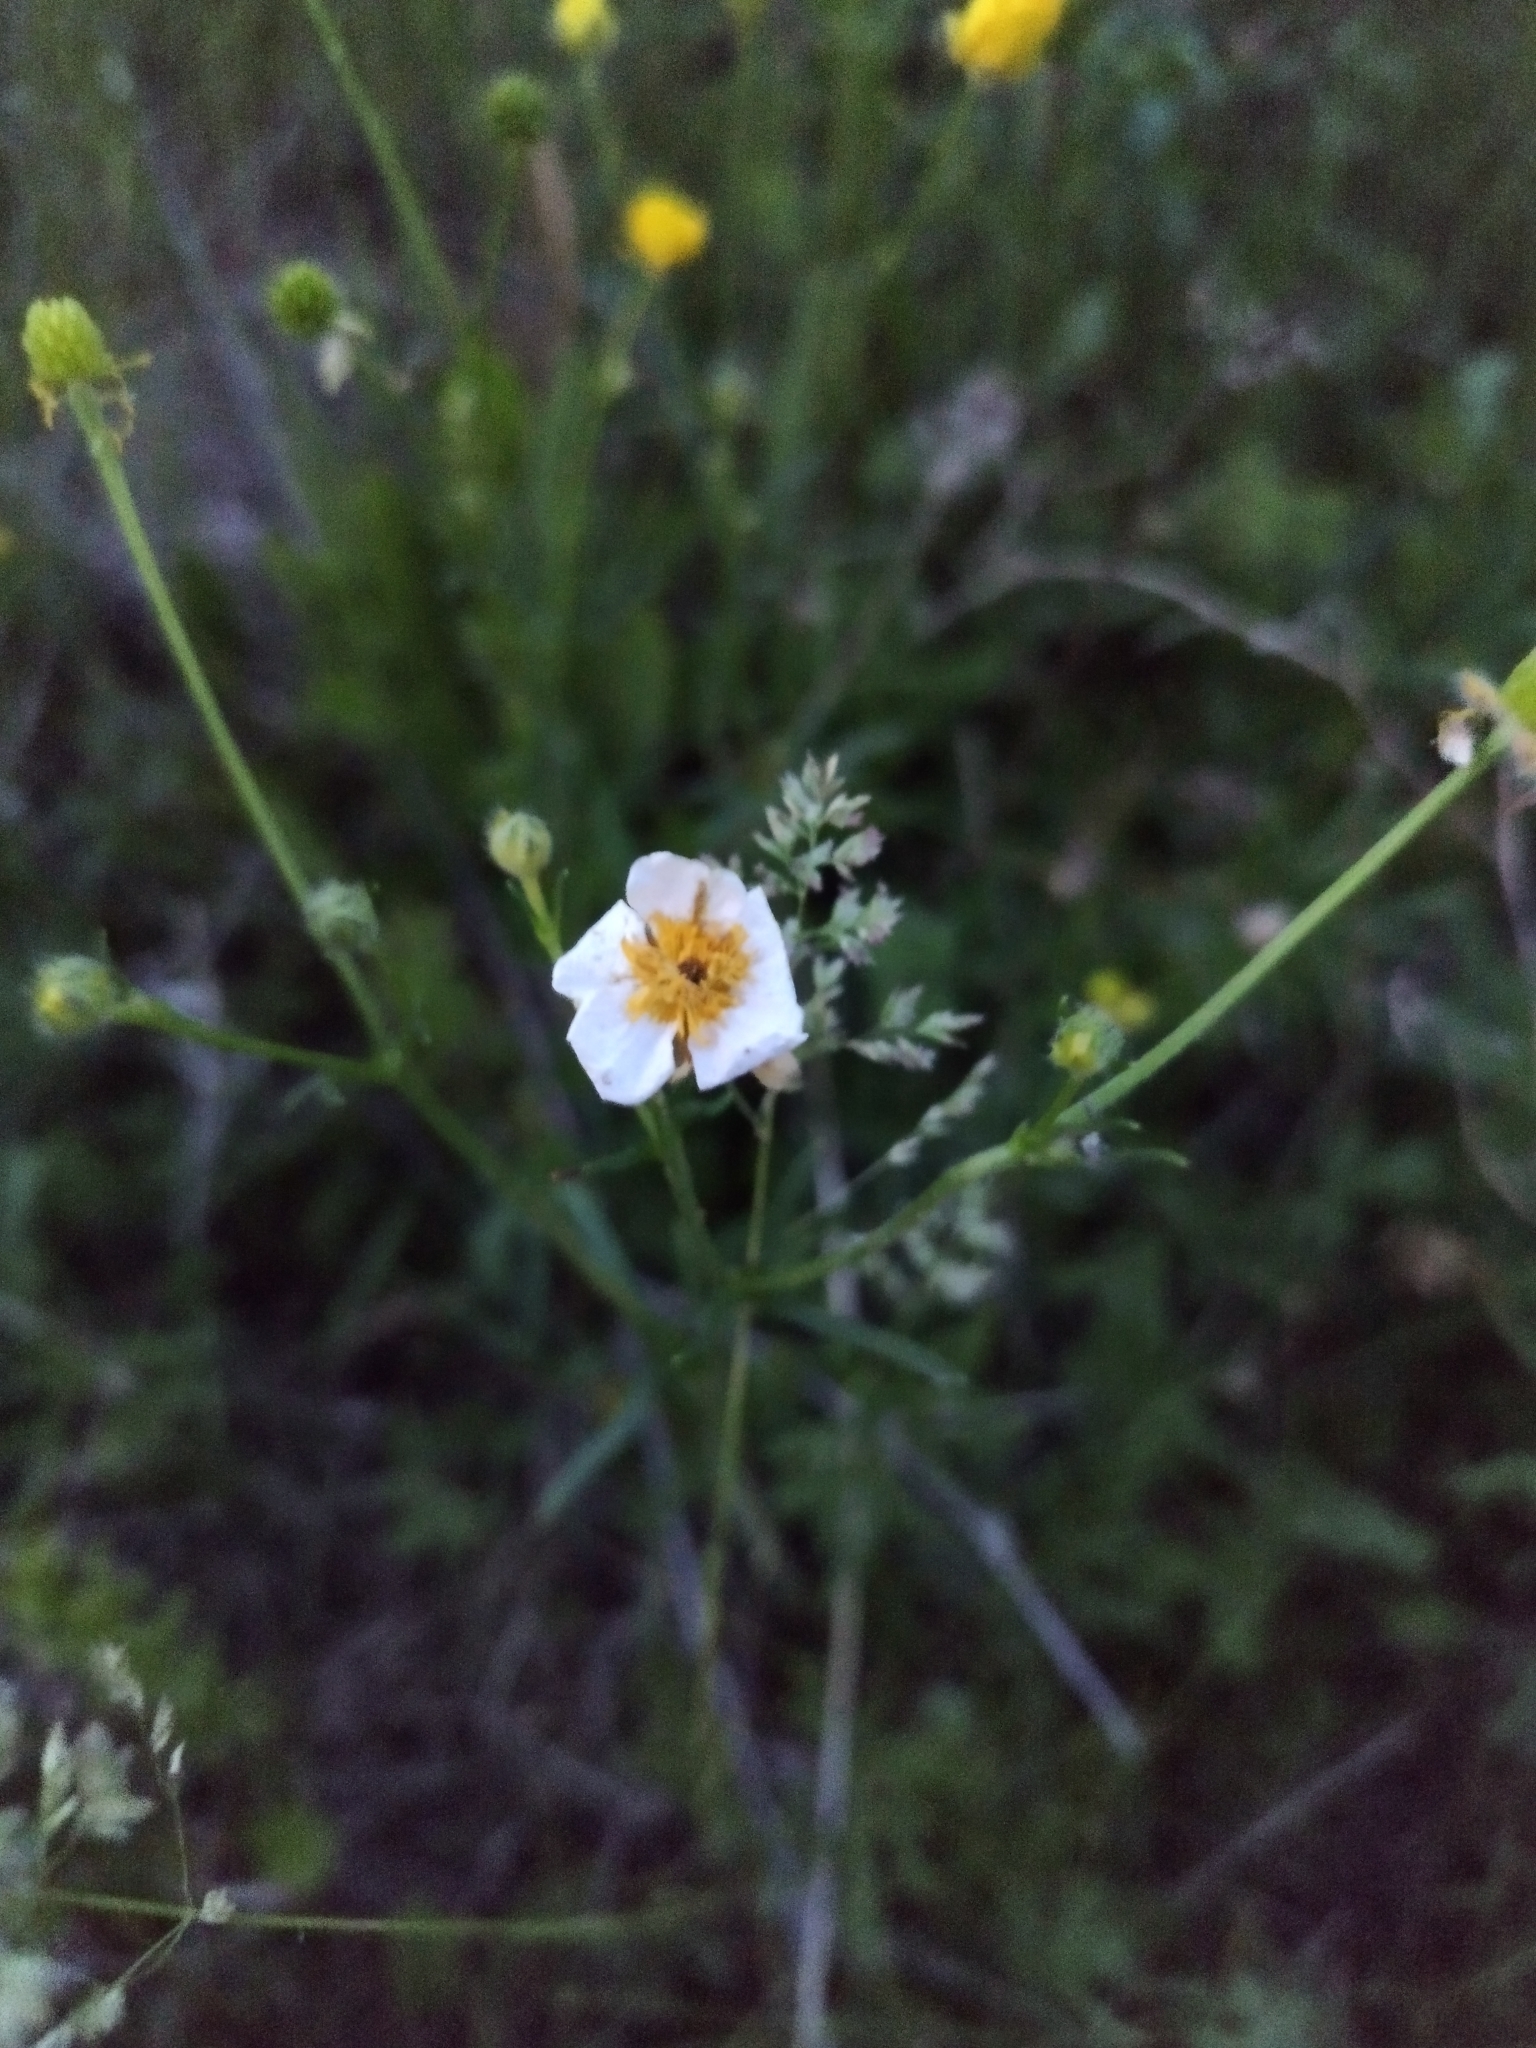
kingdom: Plantae
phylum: Tracheophyta
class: Magnoliopsida
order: Ranunculales
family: Ranunculaceae
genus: Ranunculus
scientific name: Ranunculus polyanthemos
